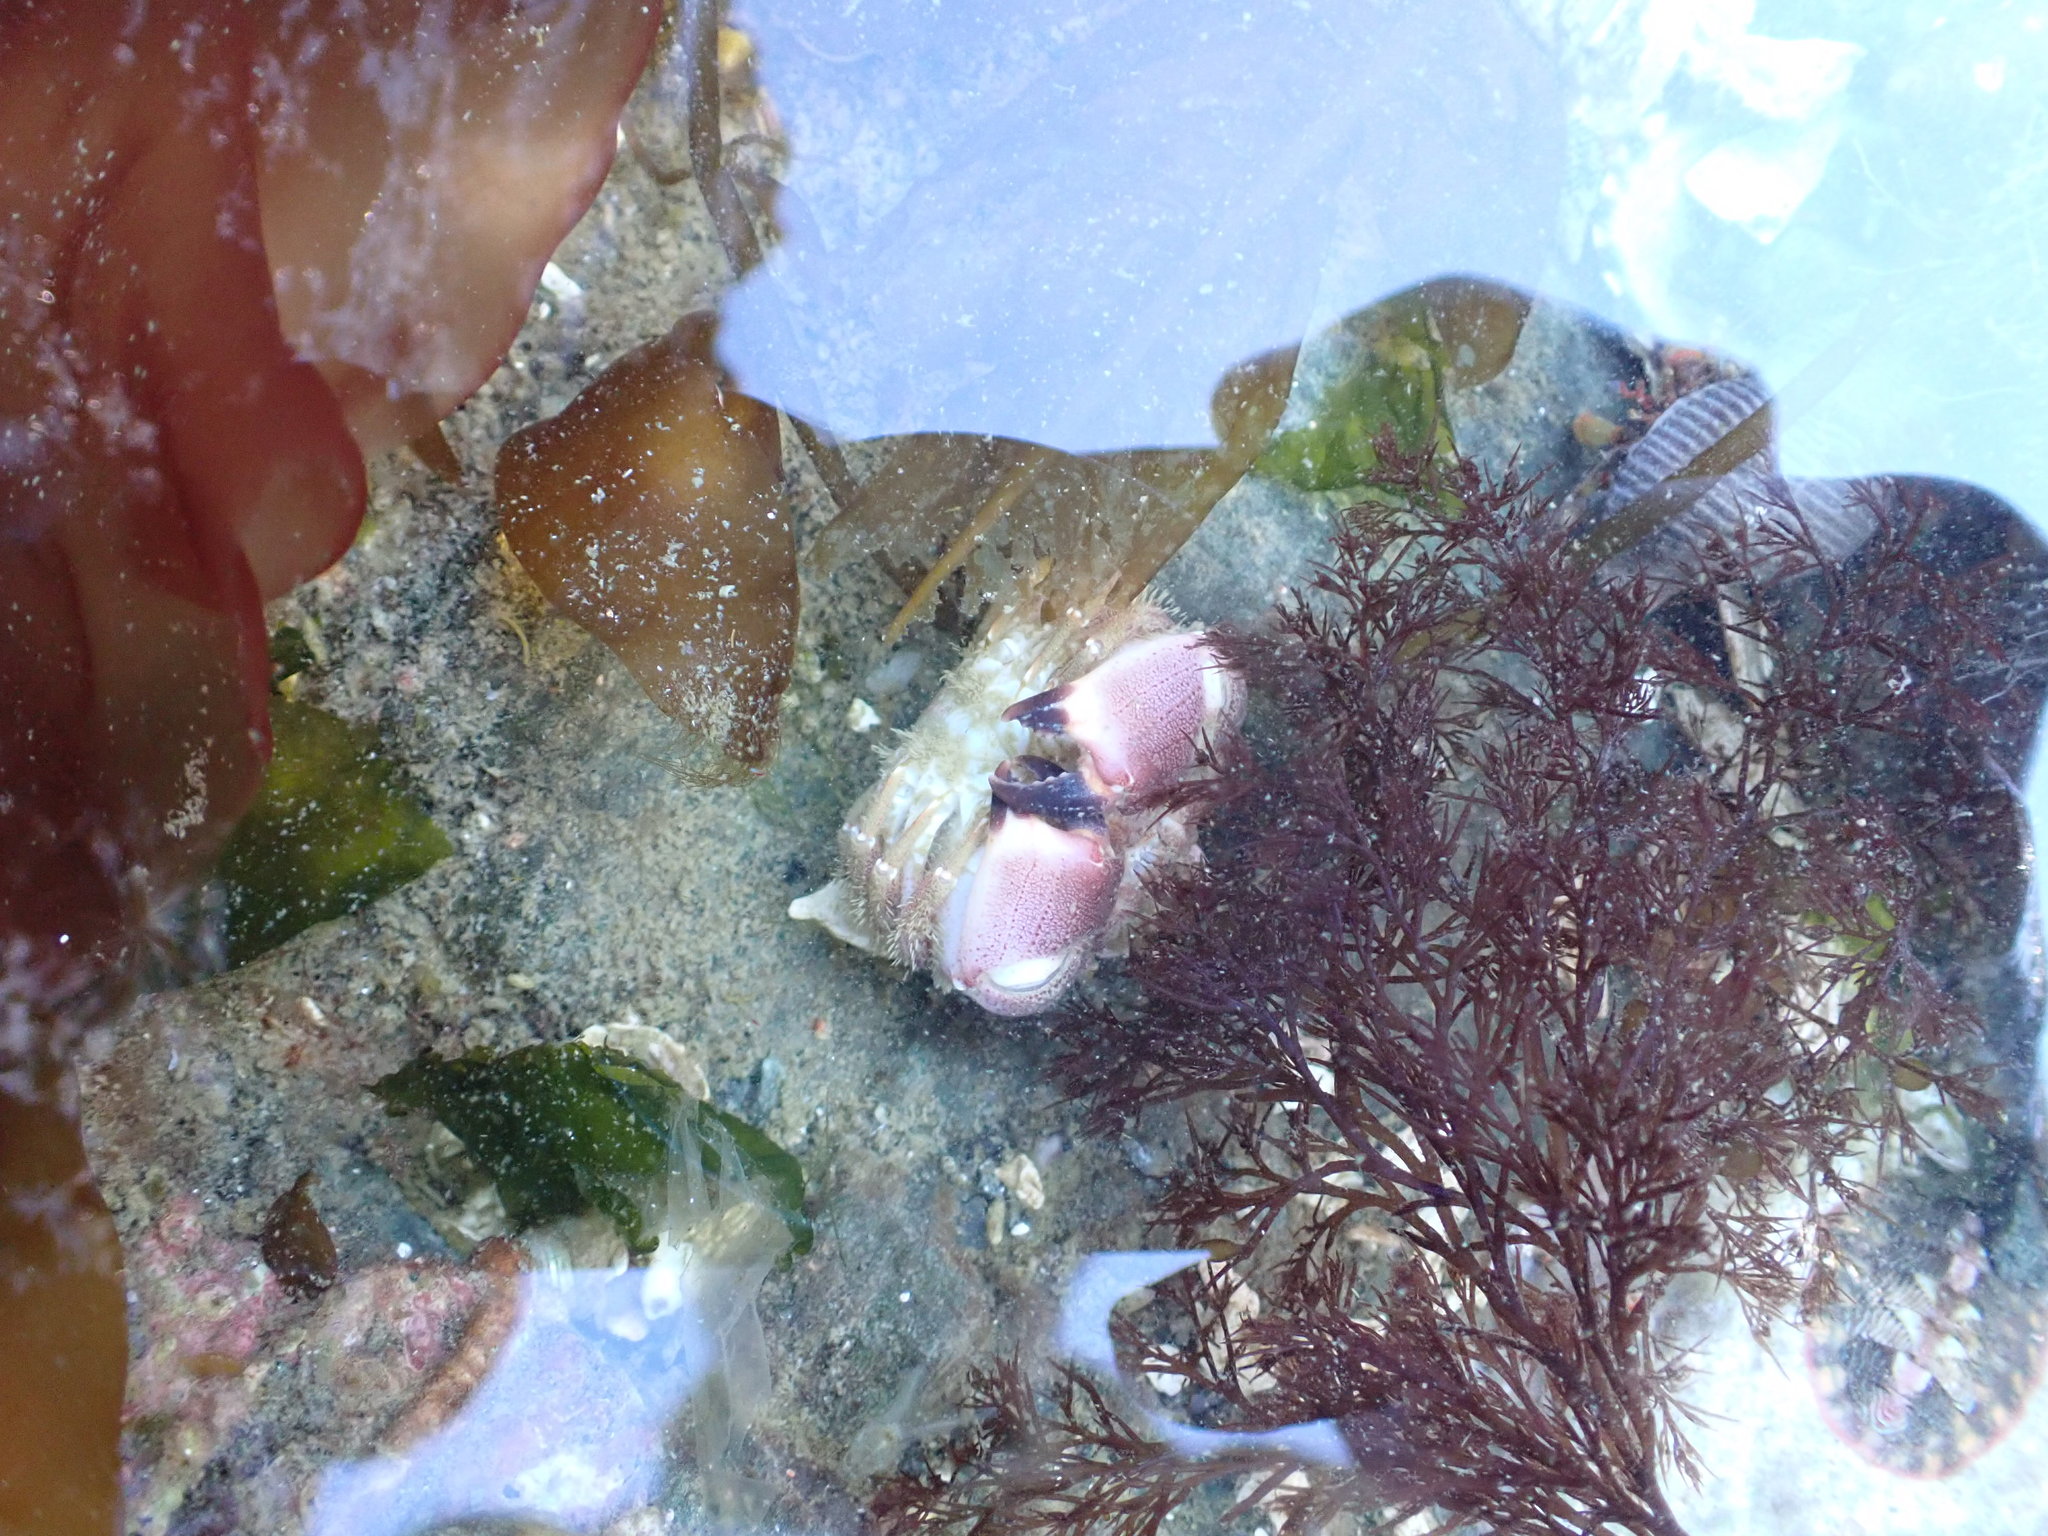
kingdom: Animalia
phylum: Arthropoda
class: Malacostraca
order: Decapoda
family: Cancridae
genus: Glebocarcinus
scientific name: Glebocarcinus oregonensis
